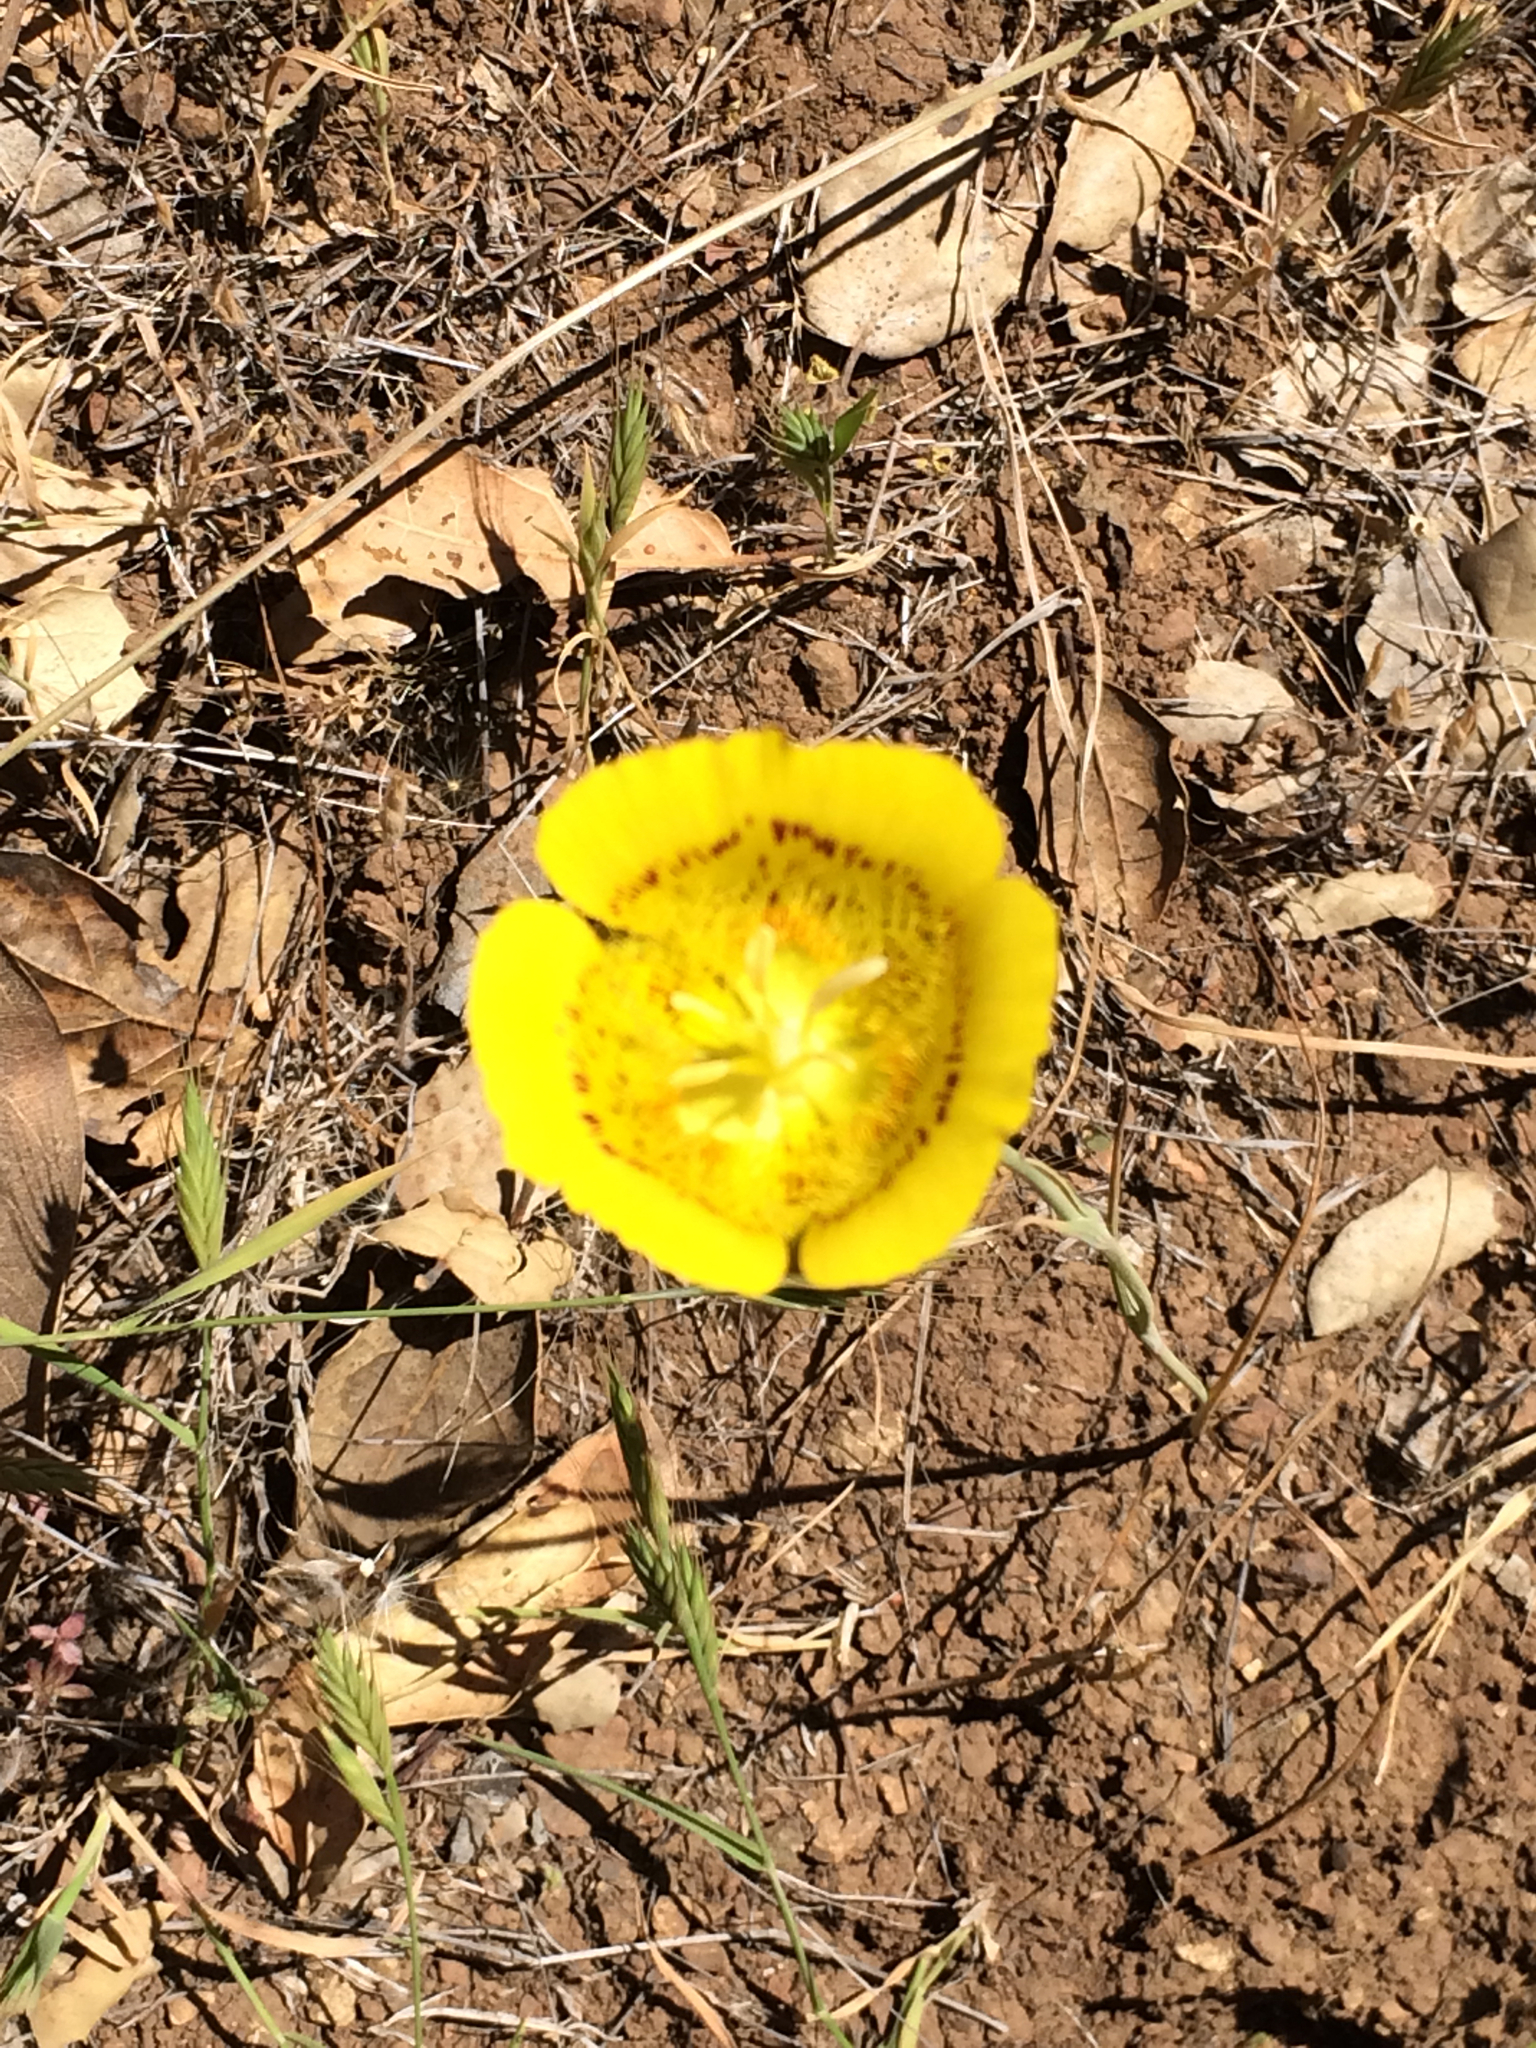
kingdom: Plantae
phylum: Tracheophyta
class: Liliopsida
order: Liliales
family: Liliaceae
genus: Calochortus
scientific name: Calochortus luteus
